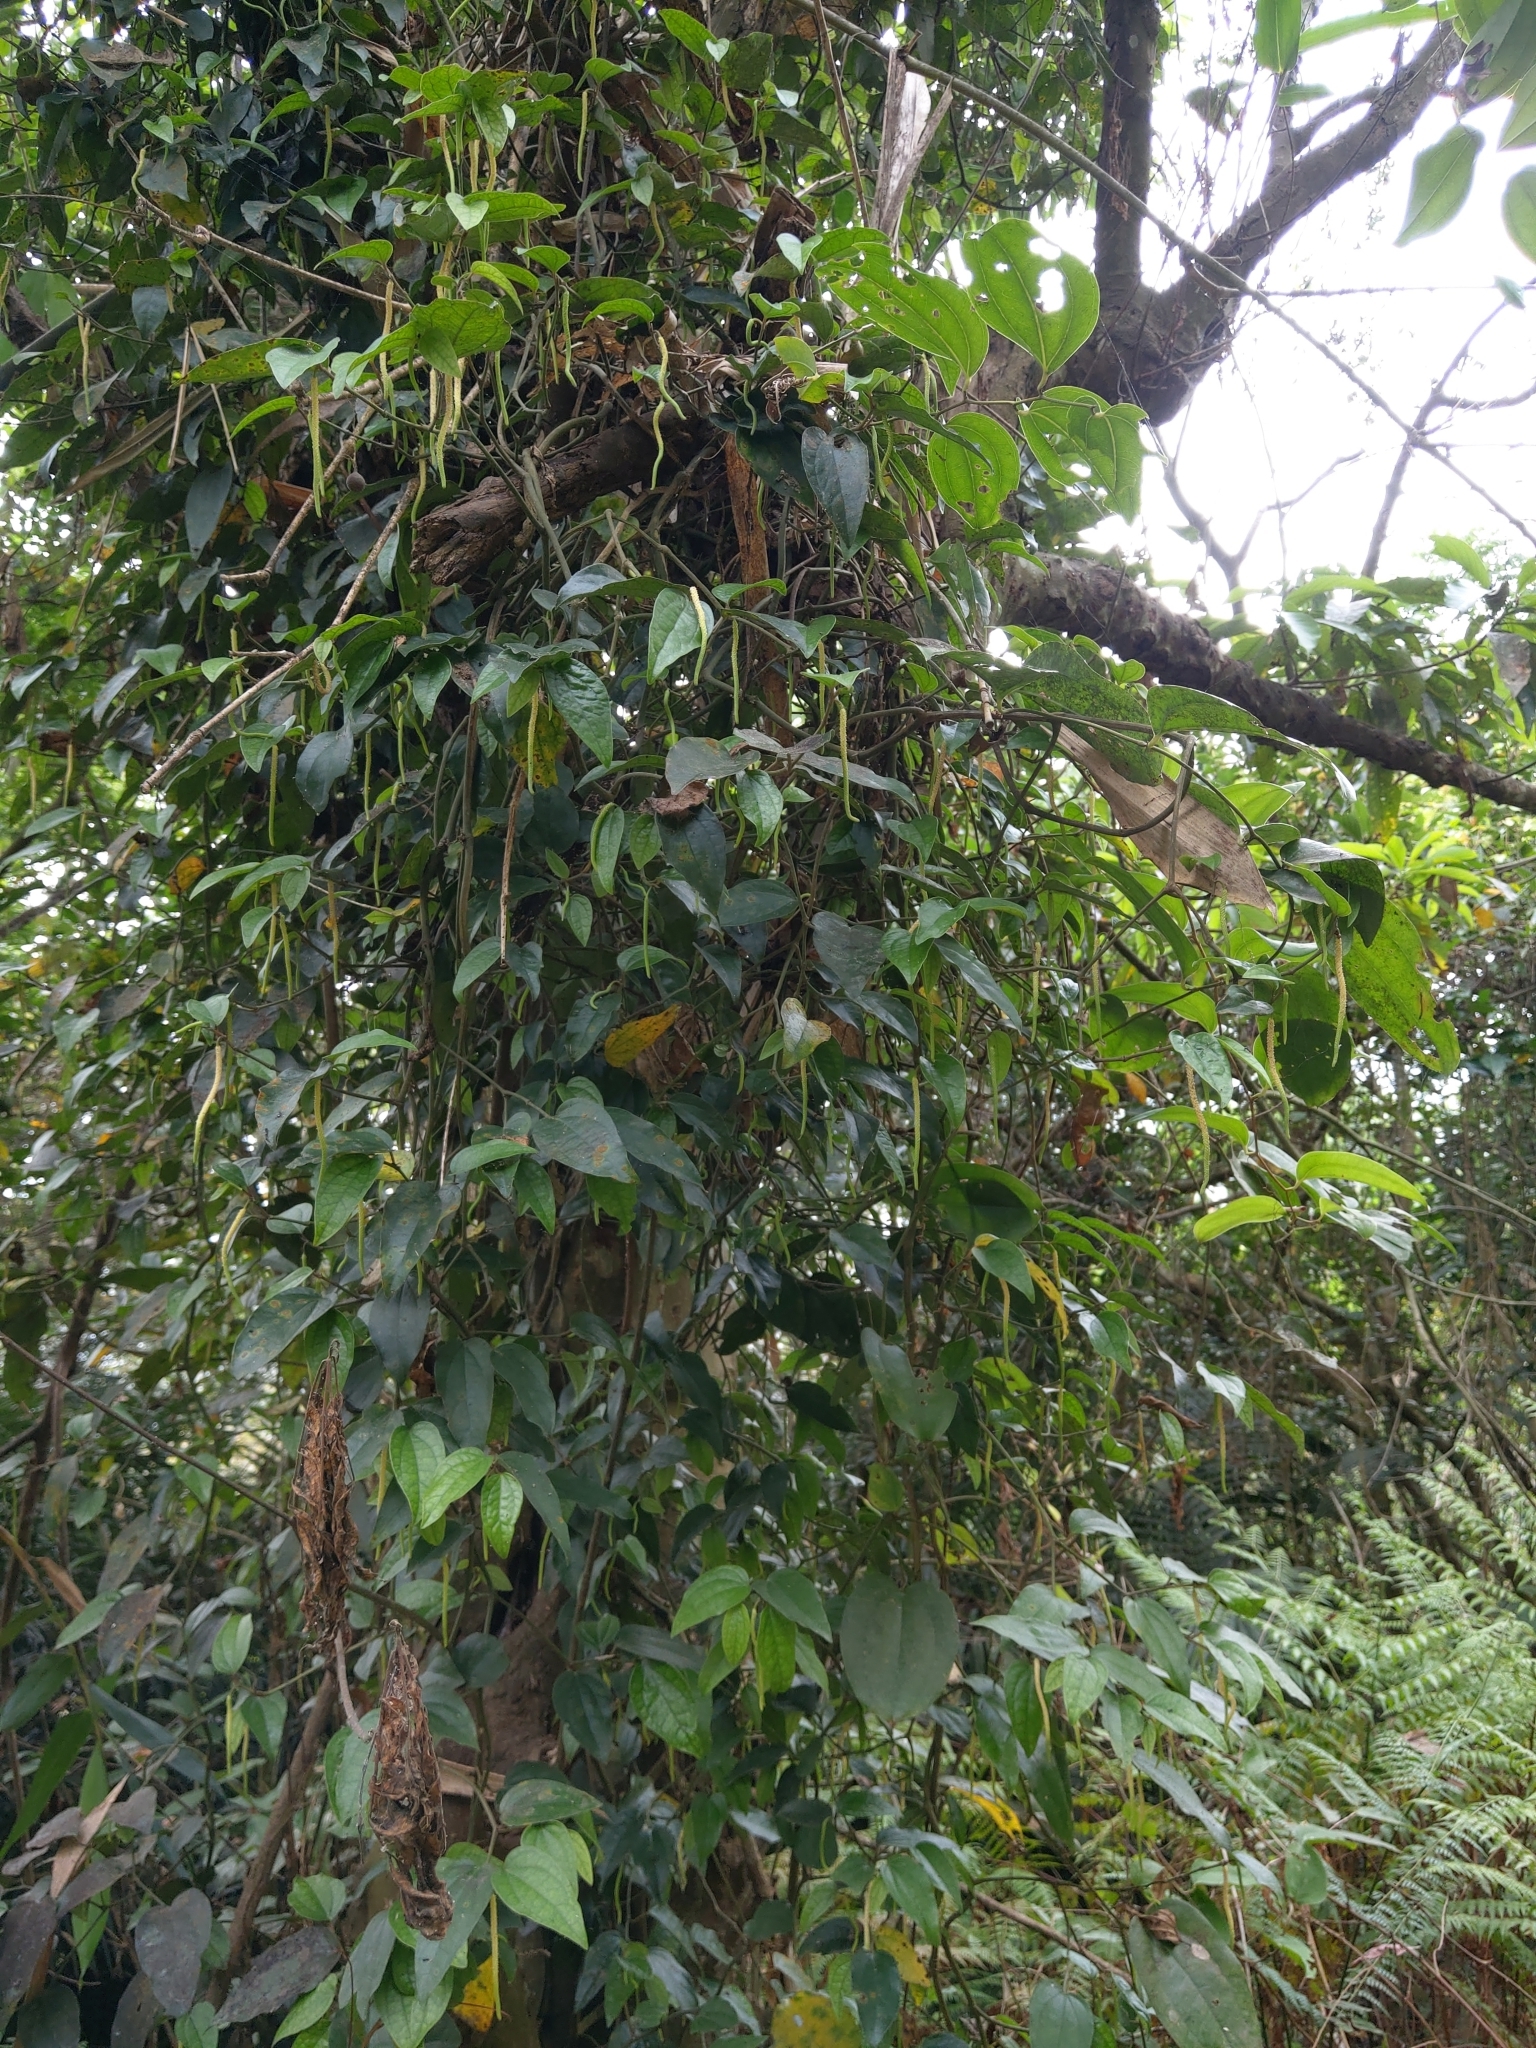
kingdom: Plantae
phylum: Tracheophyta
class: Magnoliopsida
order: Piperales
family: Piperaceae
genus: Piper
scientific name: Piper taiwanense
